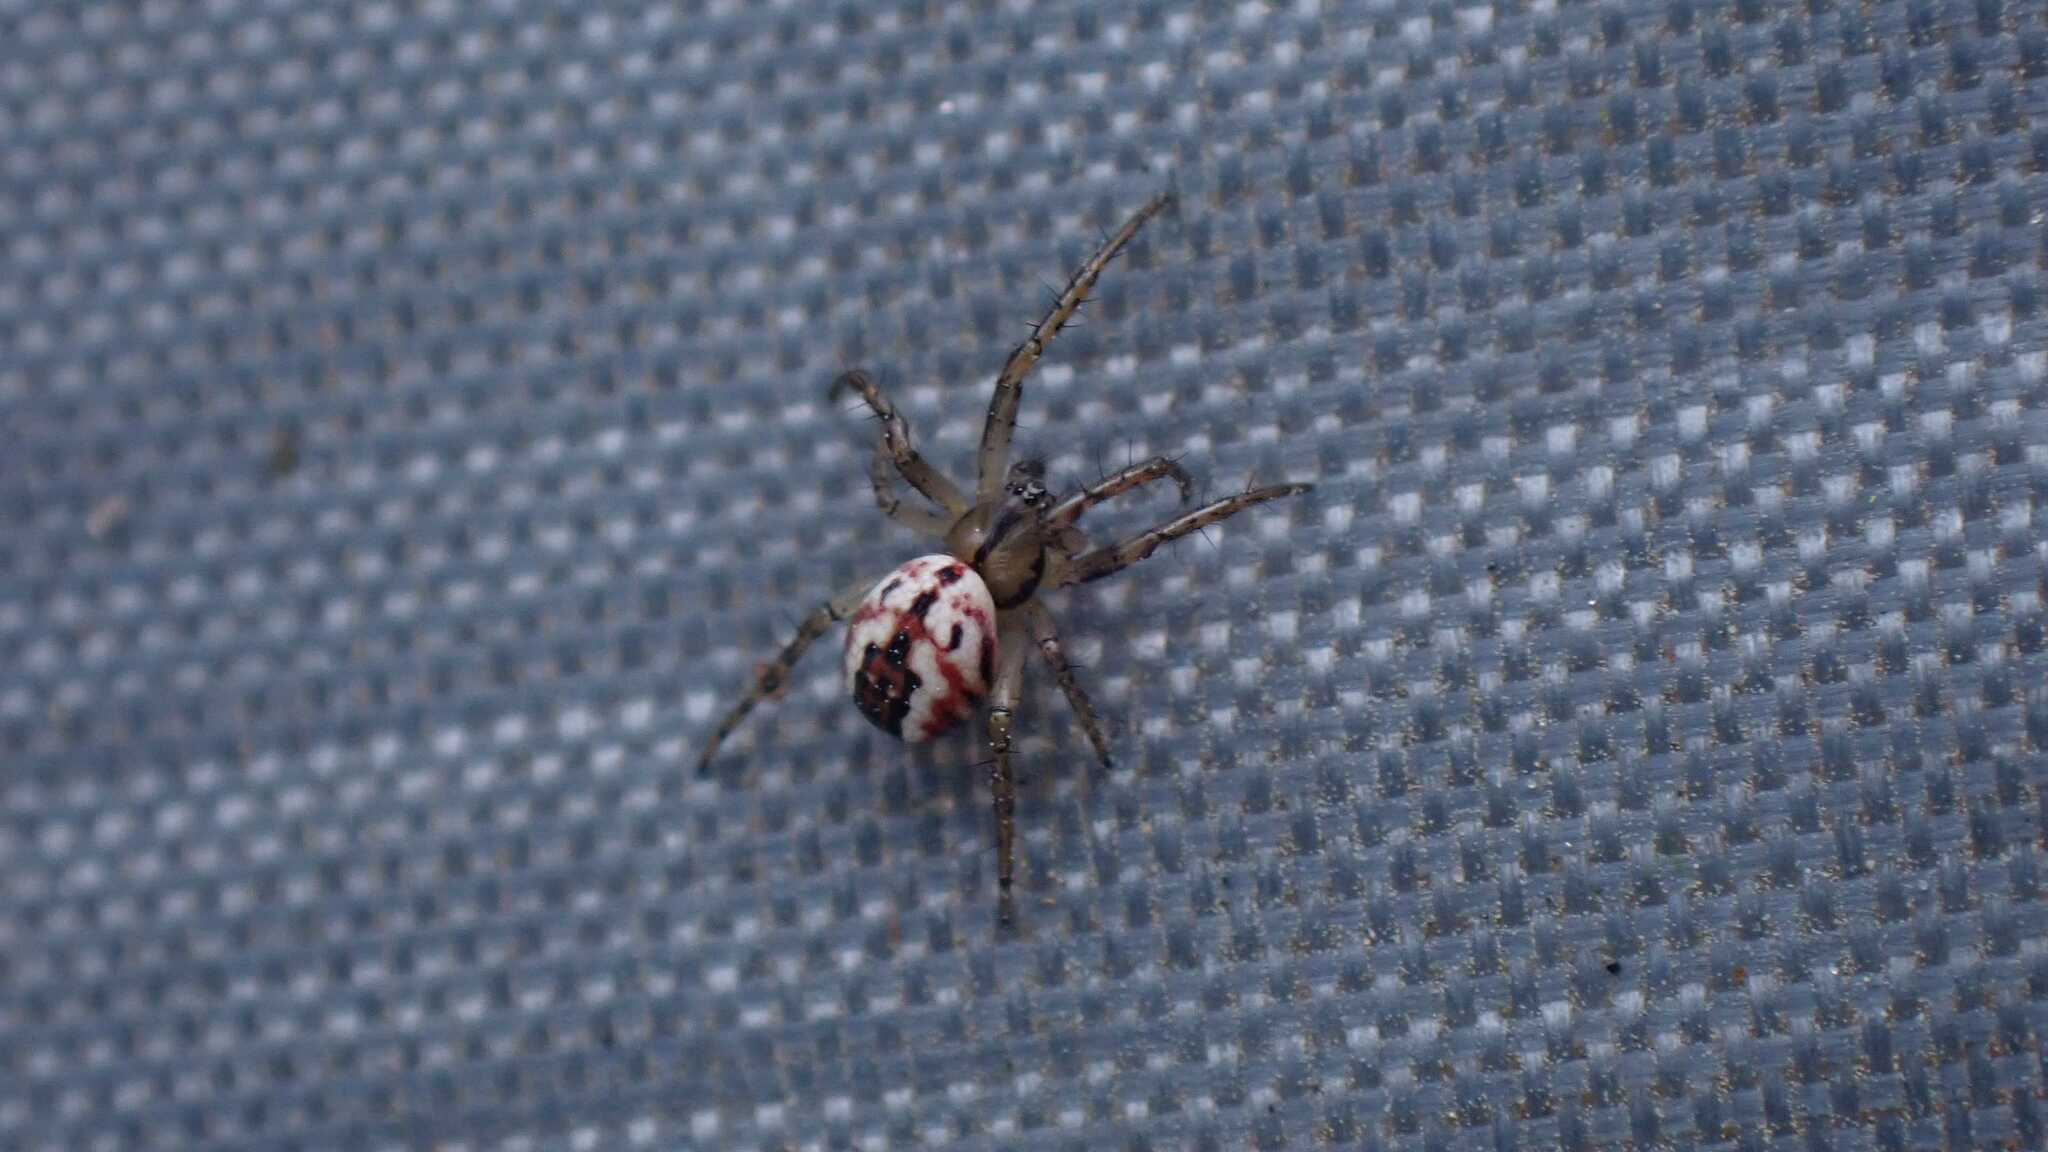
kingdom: Animalia
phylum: Arthropoda
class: Arachnida
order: Araneae
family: Araneidae
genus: Mangora
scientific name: Mangora acalypha
